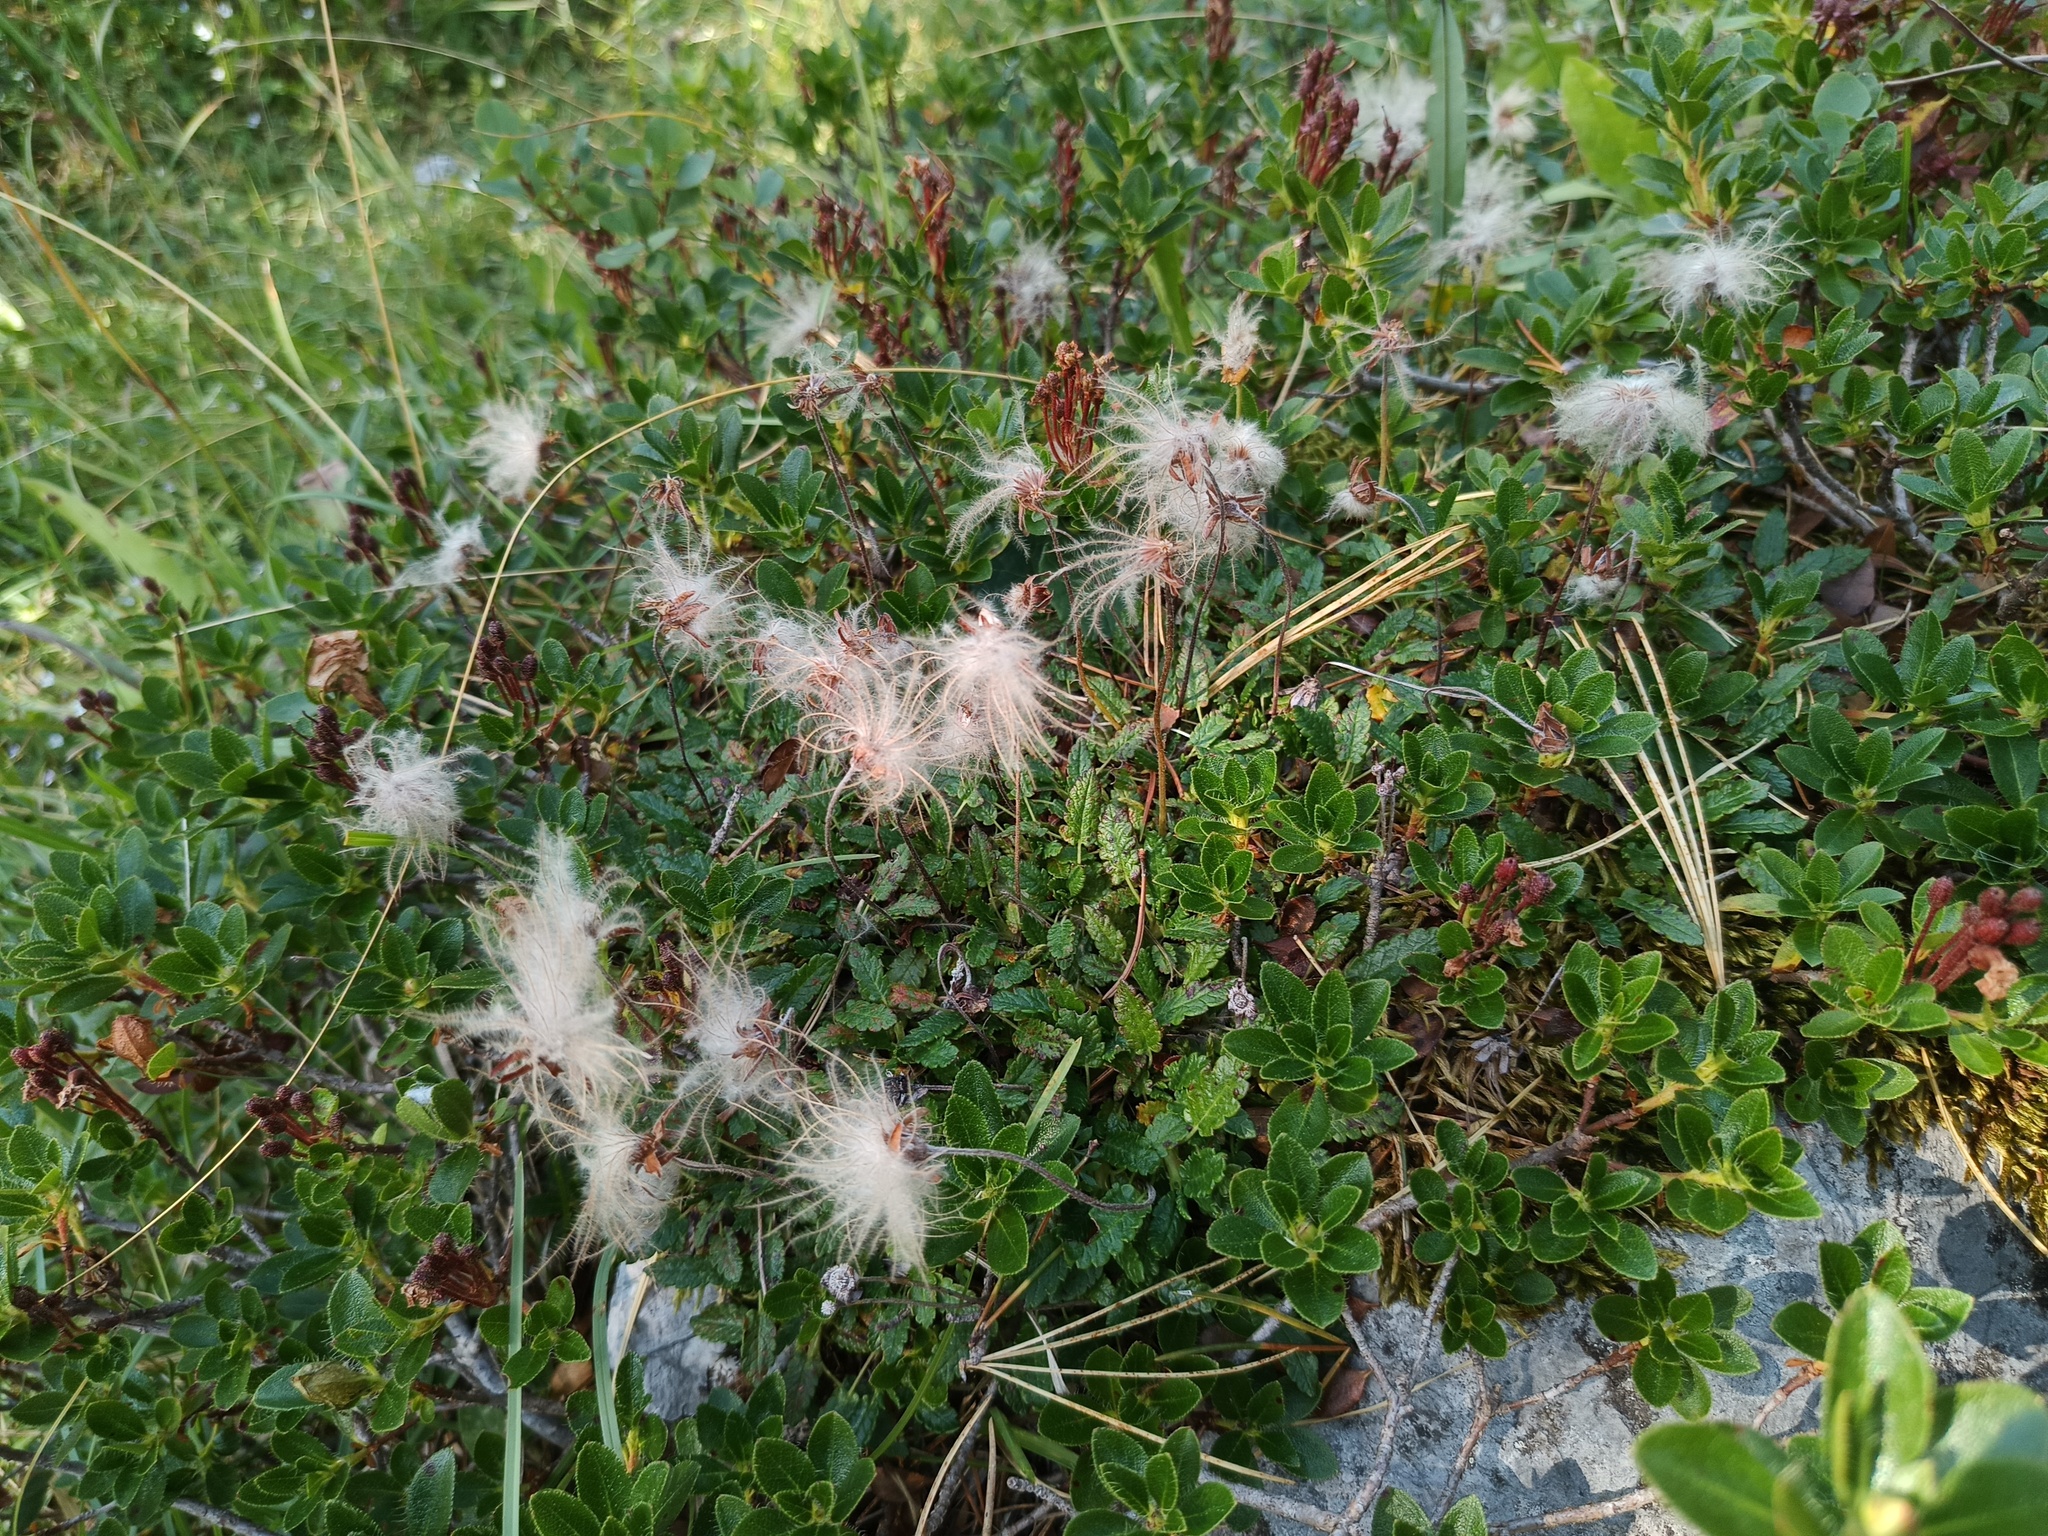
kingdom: Plantae
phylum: Tracheophyta
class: Magnoliopsida
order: Rosales
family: Rosaceae
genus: Dryas
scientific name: Dryas octopetala
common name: Eight-petal mountain-avens
